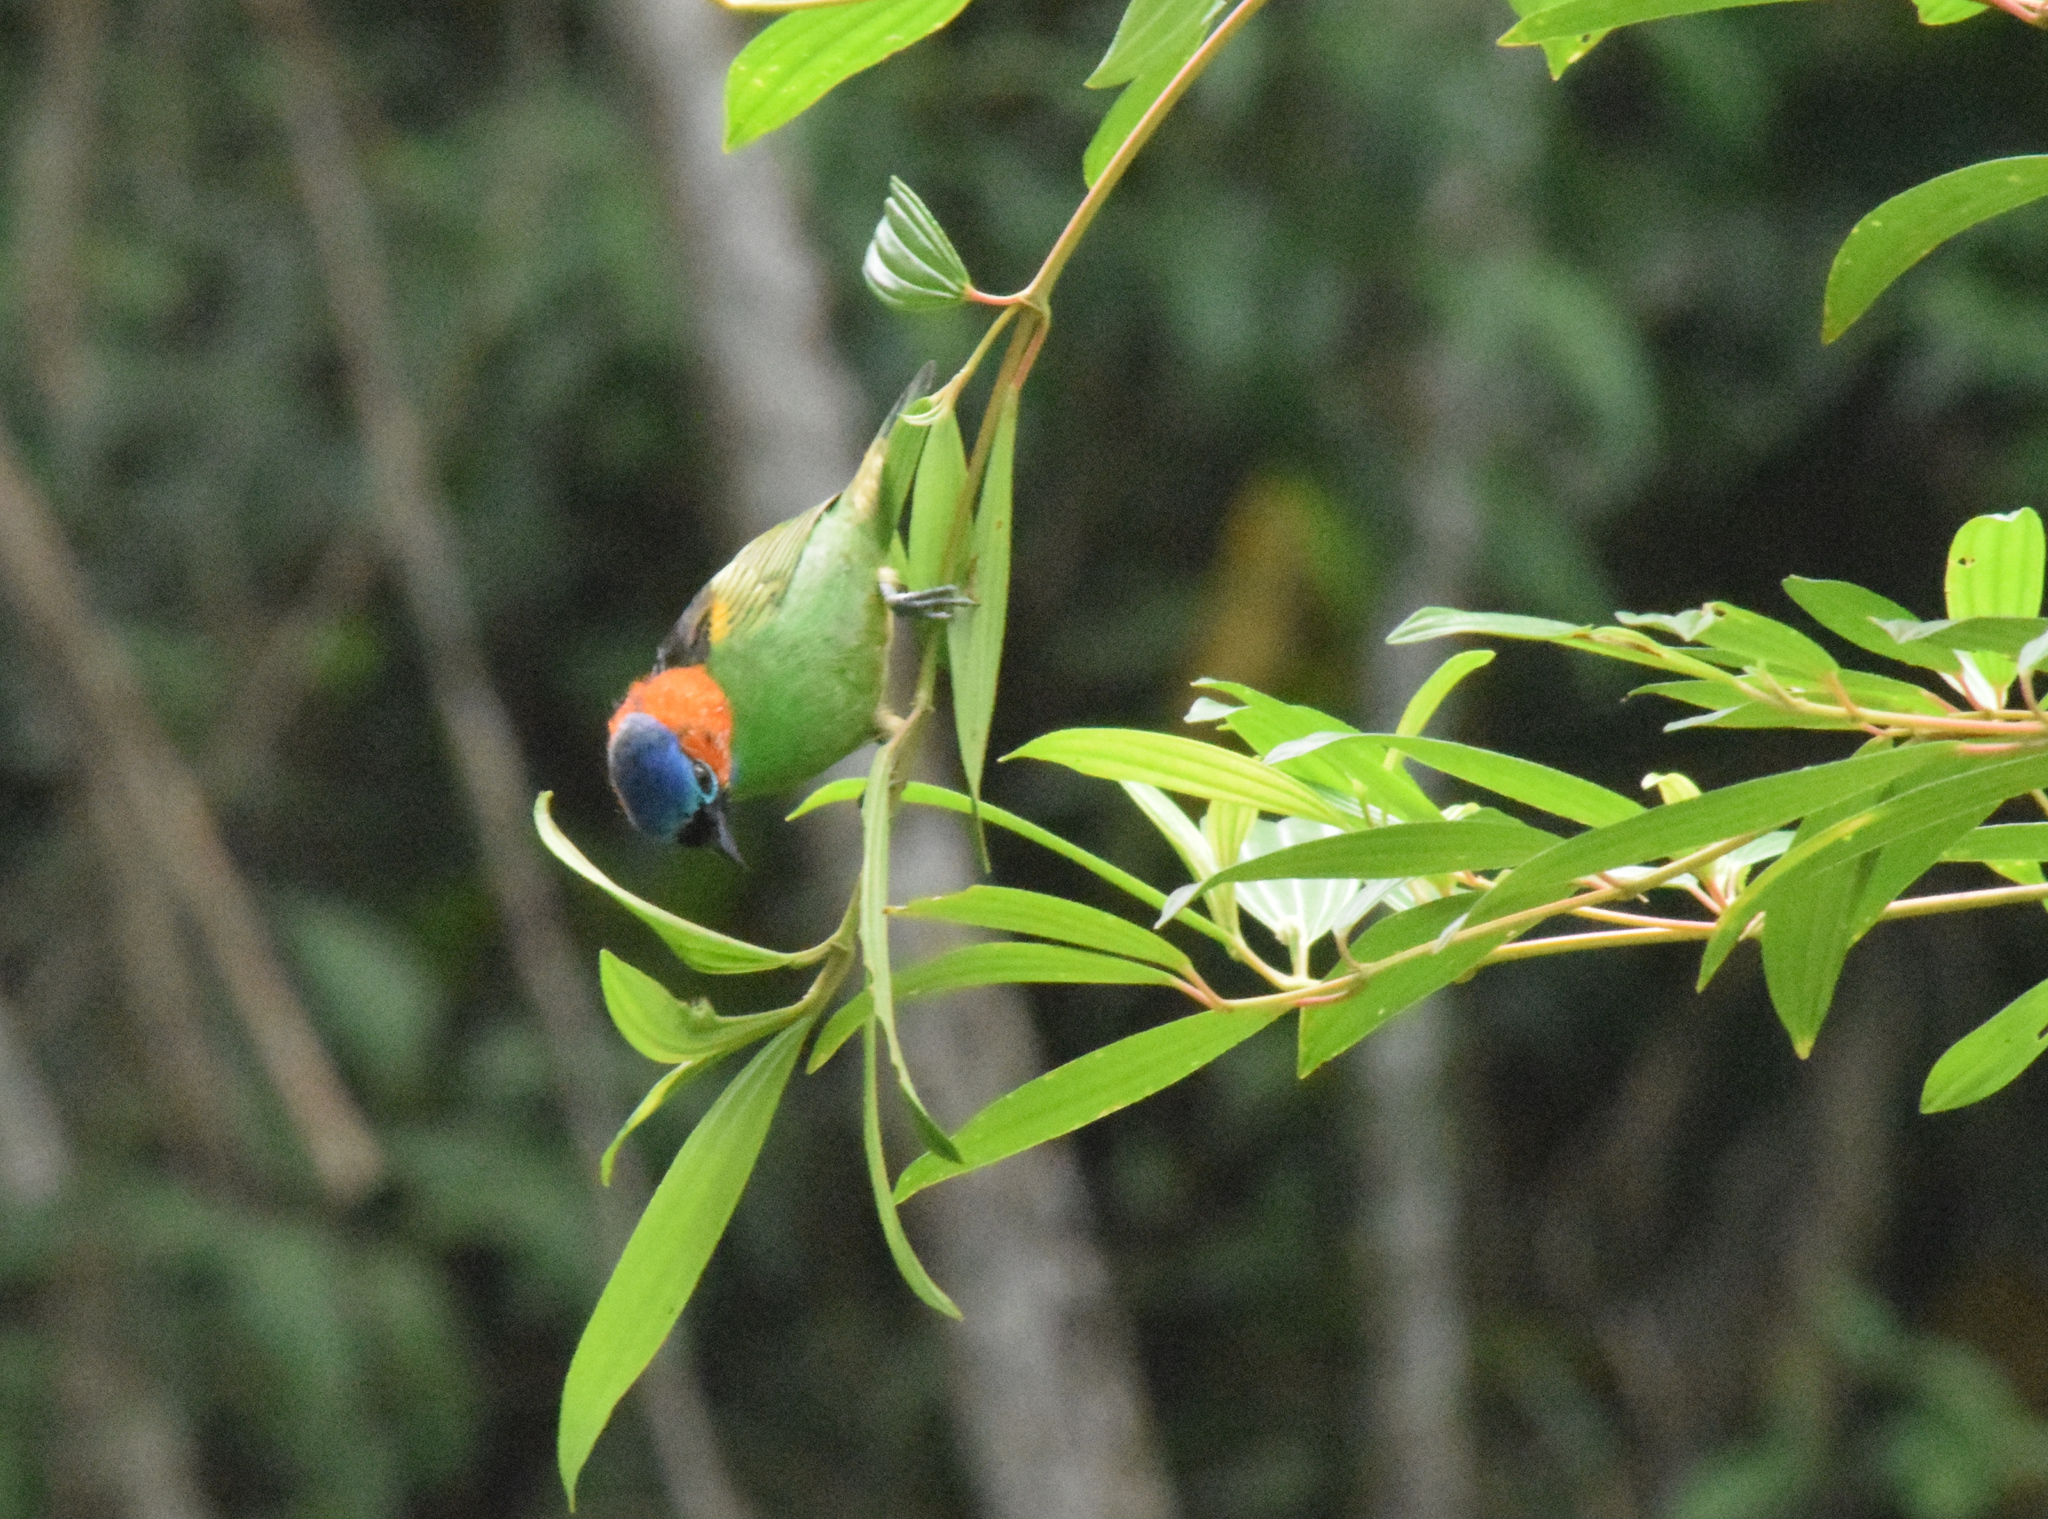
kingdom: Animalia
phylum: Chordata
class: Aves
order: Passeriformes
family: Thraupidae
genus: Tangara
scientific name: Tangara cyanocephala
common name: Red-necked tanager
